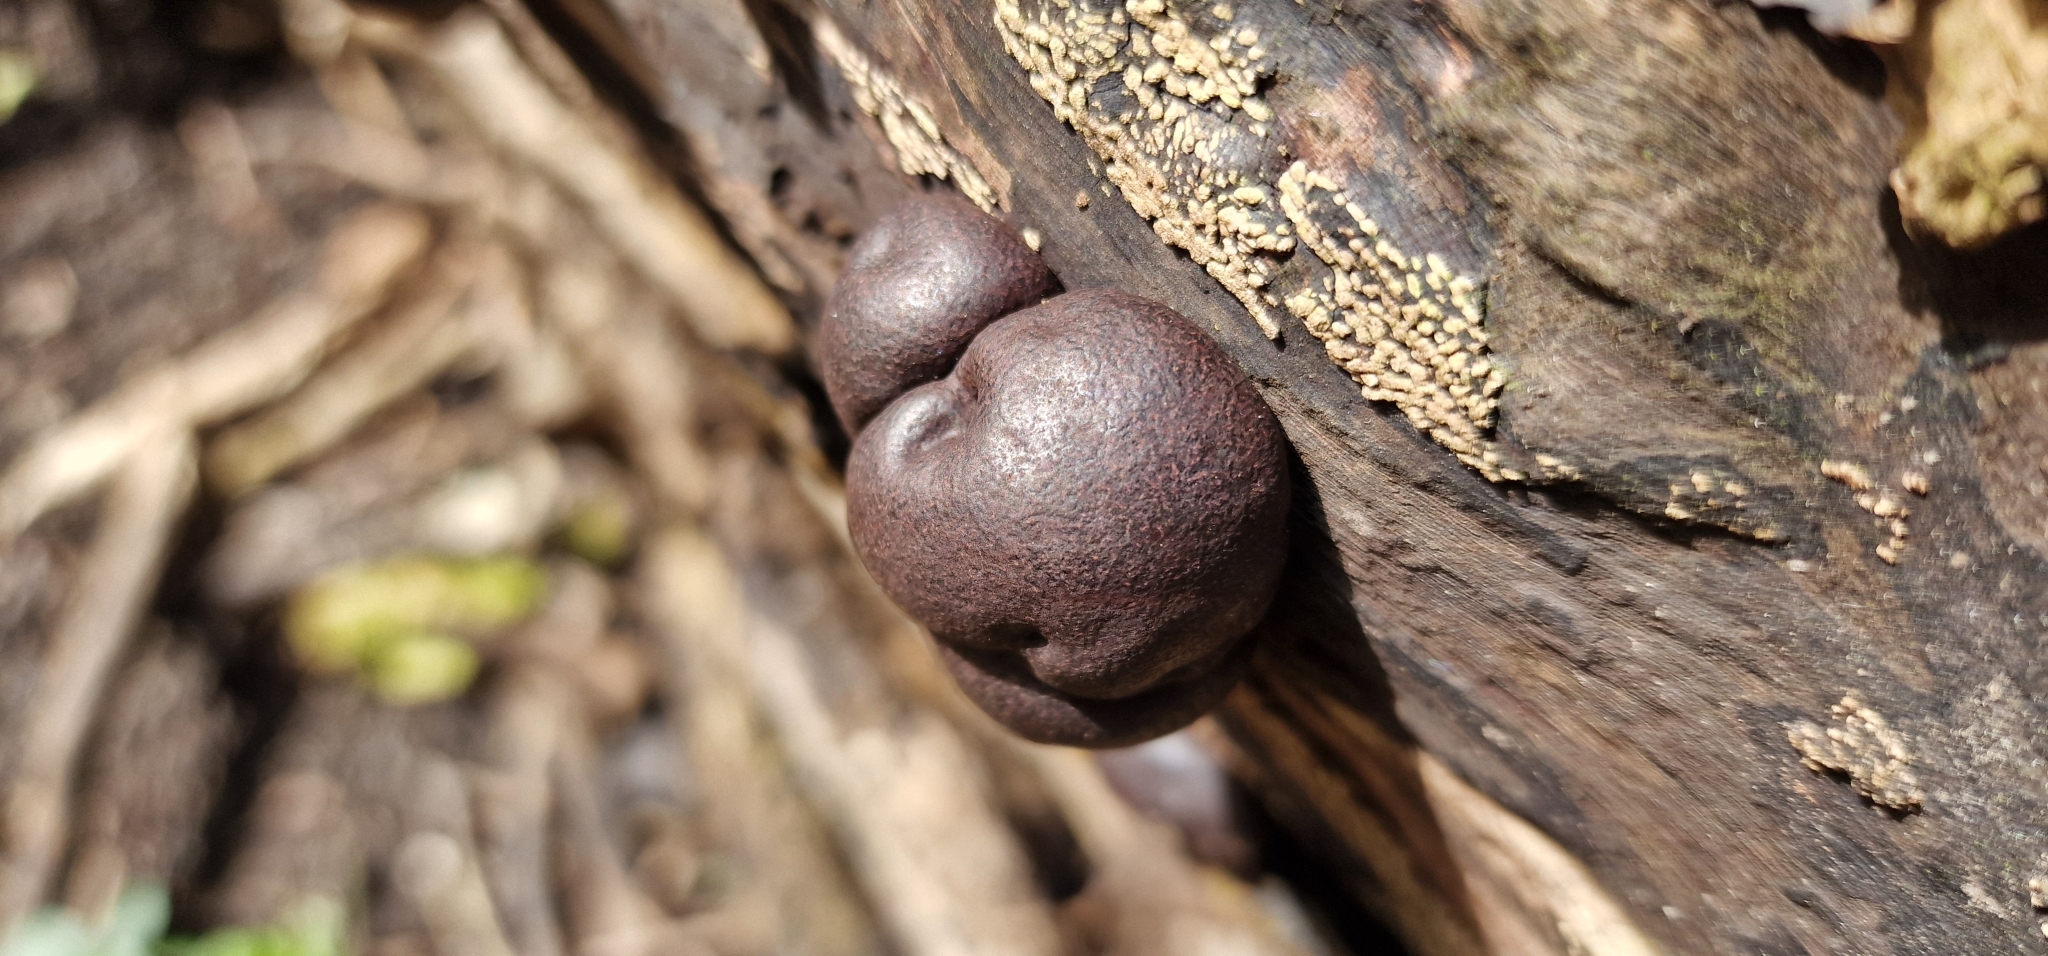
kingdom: Fungi
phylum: Ascomycota
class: Sordariomycetes
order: Xylariales
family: Hypoxylaceae
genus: Daldinia
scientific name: Daldinia concentrica
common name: Cramp balls
